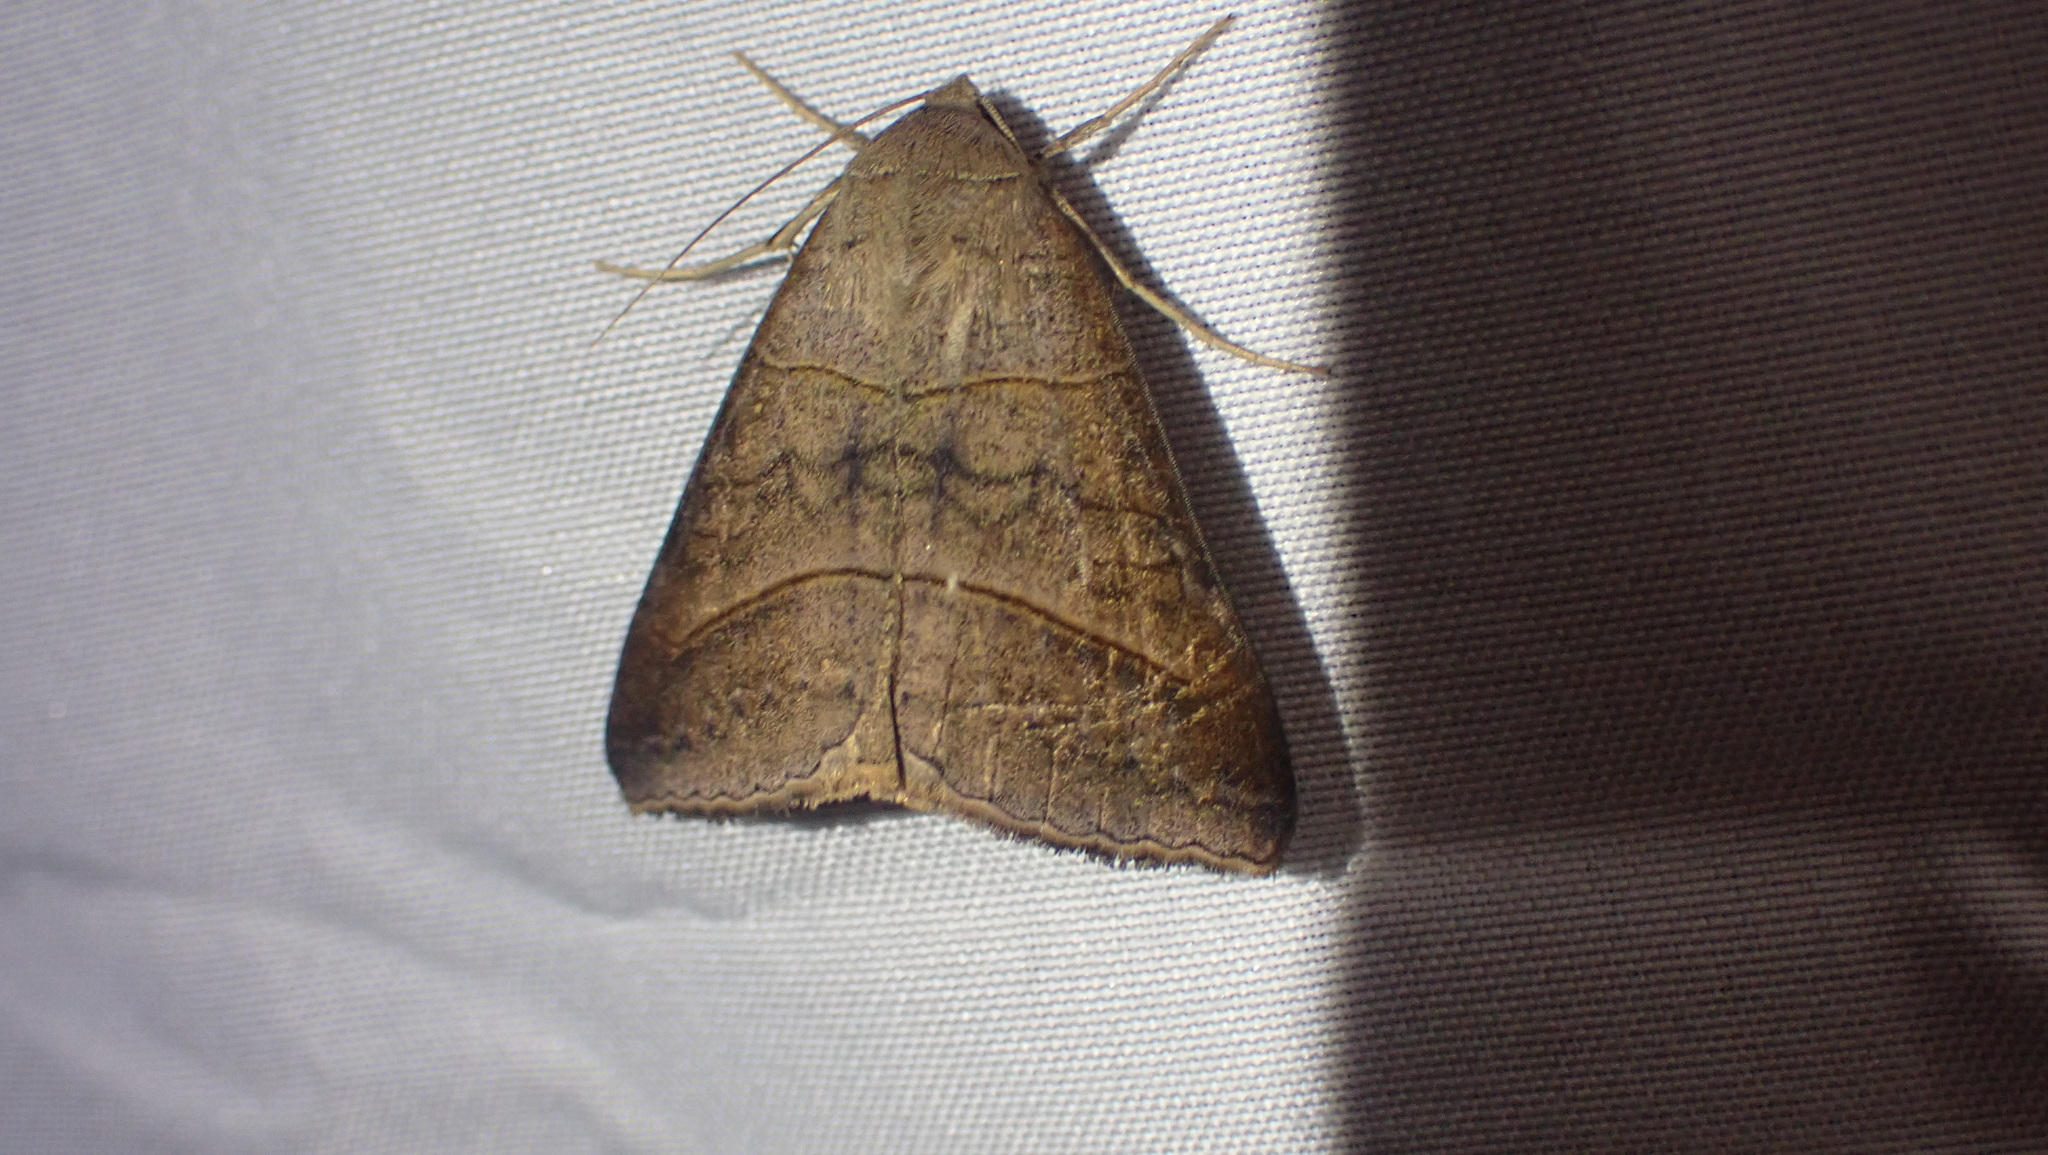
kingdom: Animalia
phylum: Arthropoda
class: Insecta
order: Lepidoptera
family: Erebidae
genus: Mocis
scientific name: Mocis texana
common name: Texas mocis moth
